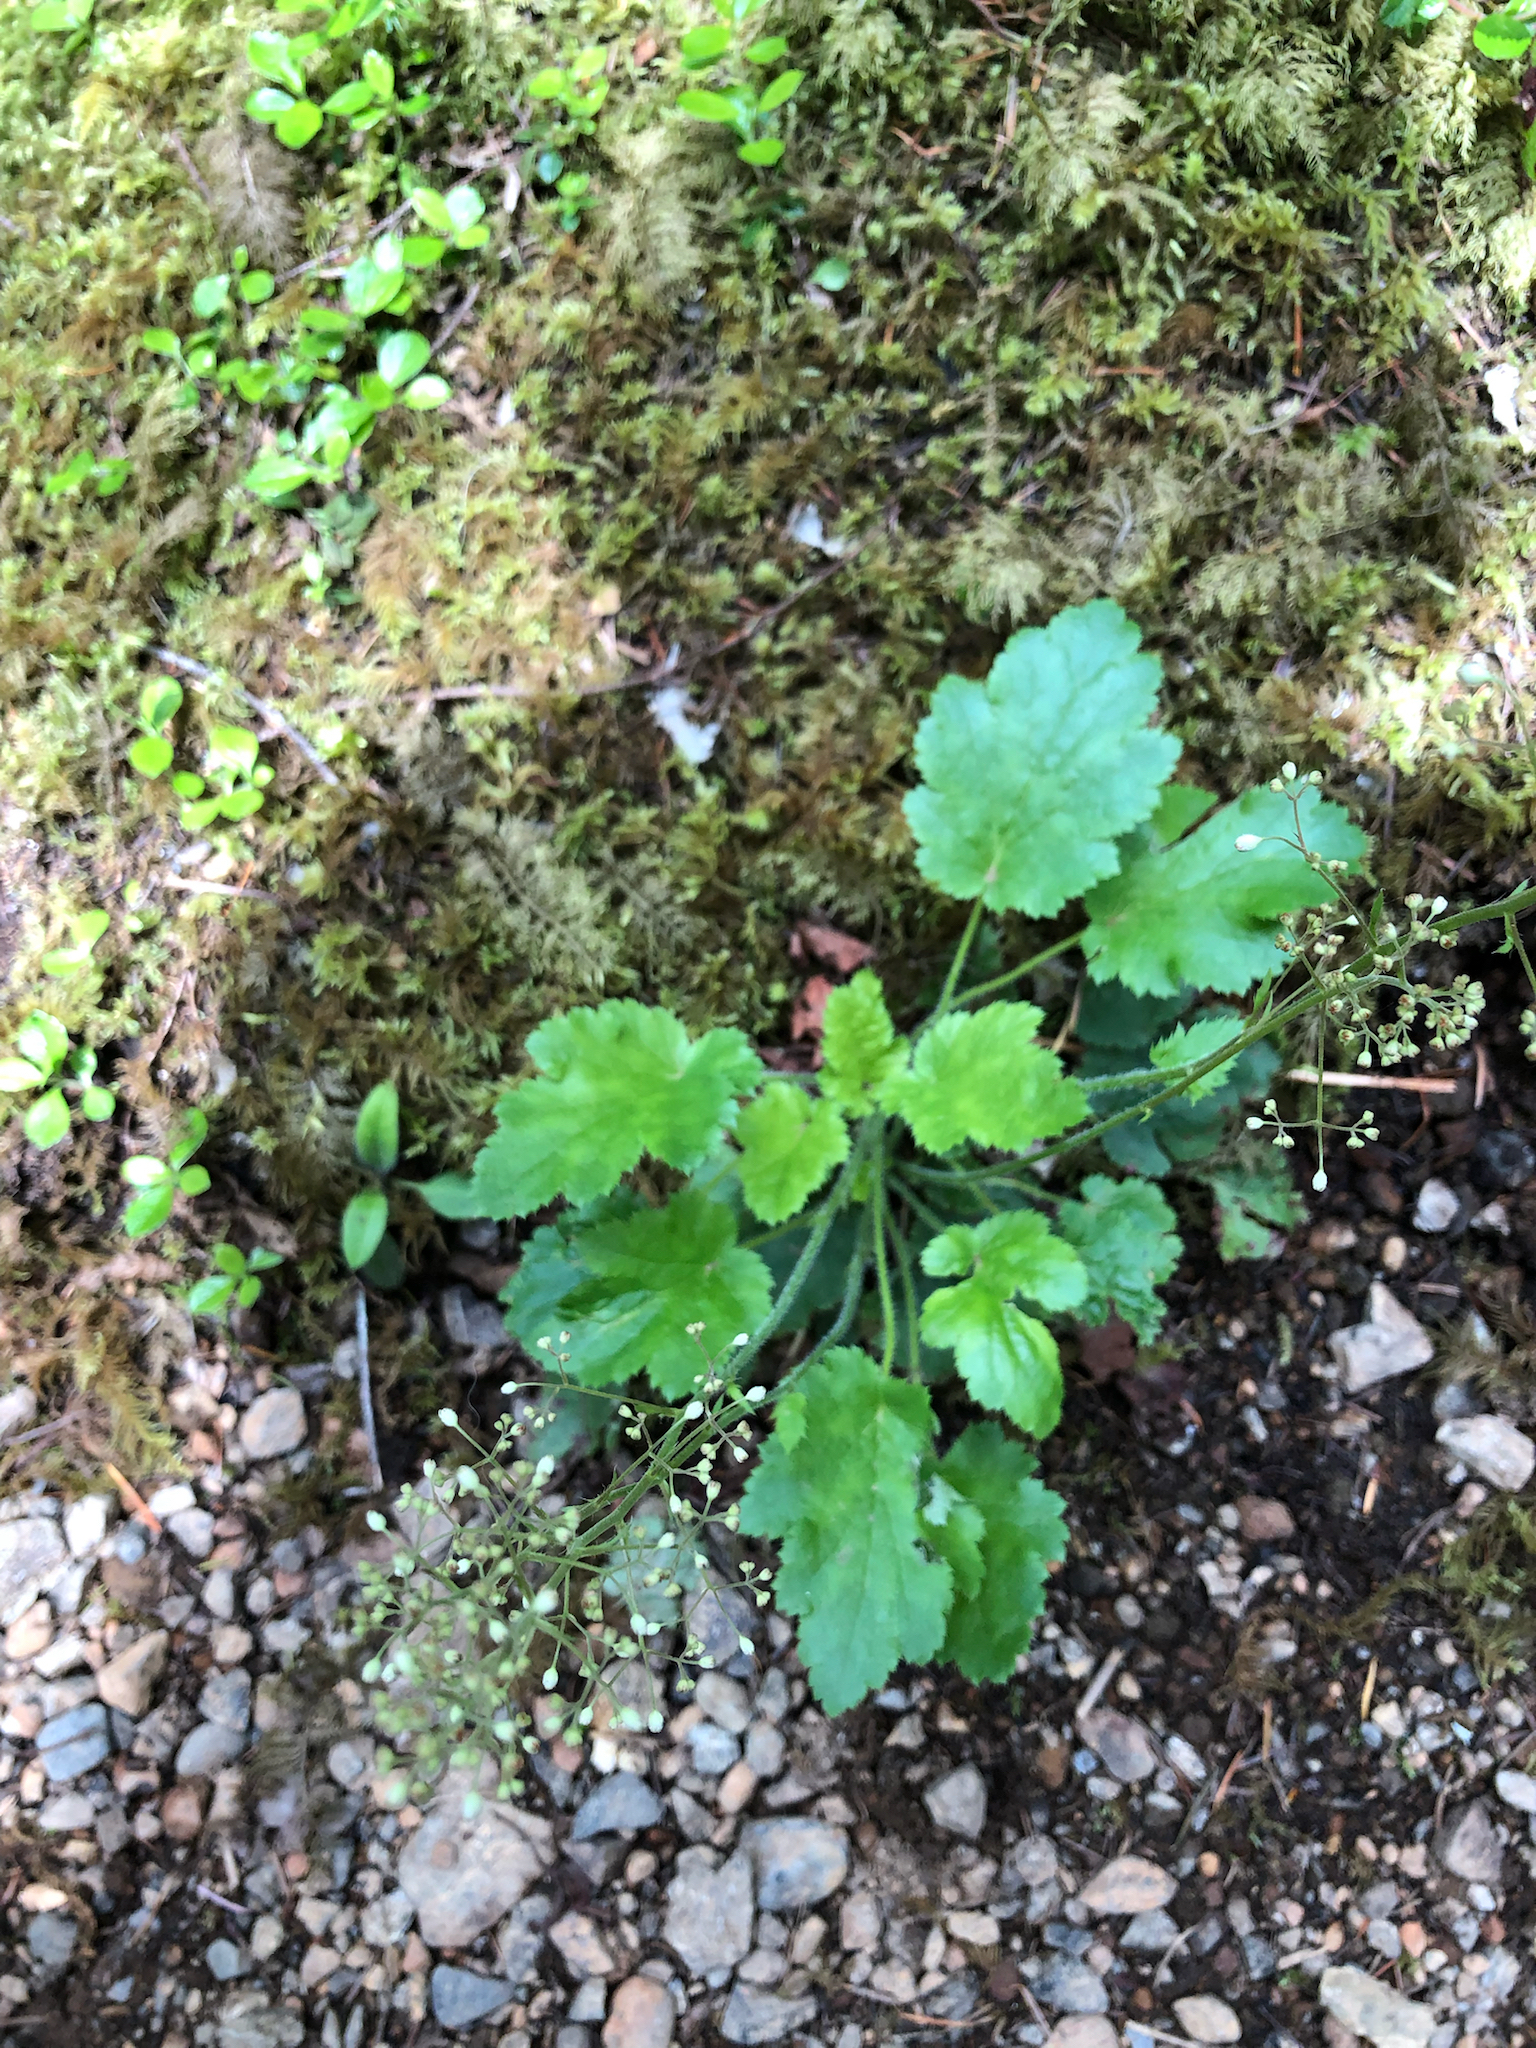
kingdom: Plantae
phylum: Tracheophyta
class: Magnoliopsida
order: Saxifragales
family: Saxifragaceae
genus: Heuchera
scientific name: Heuchera micrantha
